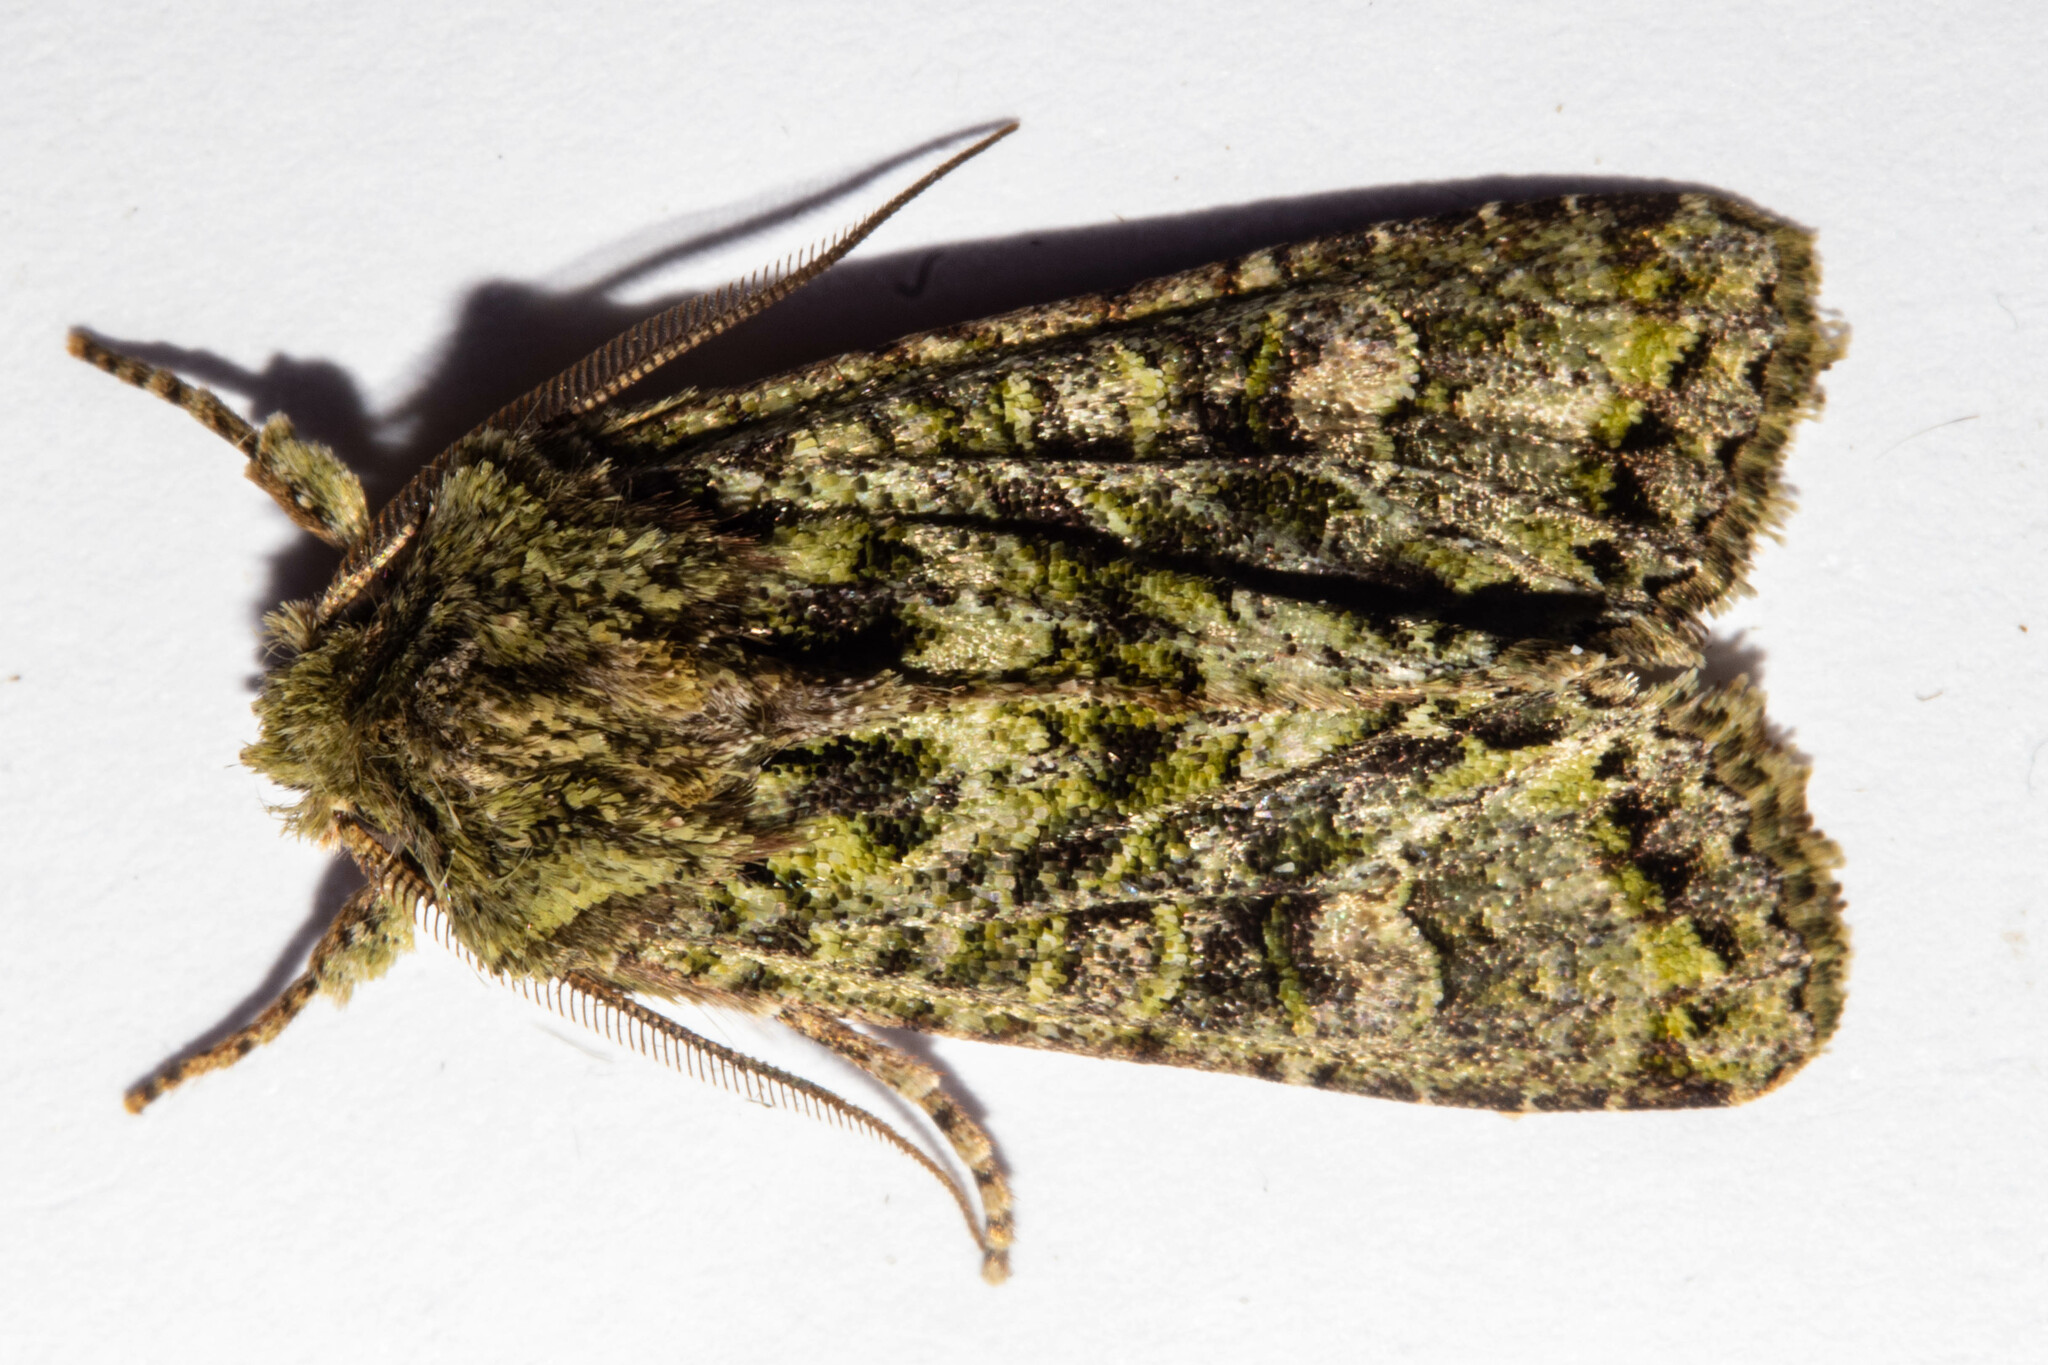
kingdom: Animalia
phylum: Arthropoda
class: Insecta
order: Lepidoptera
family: Noctuidae
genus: Ichneutica
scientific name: Ichneutica
